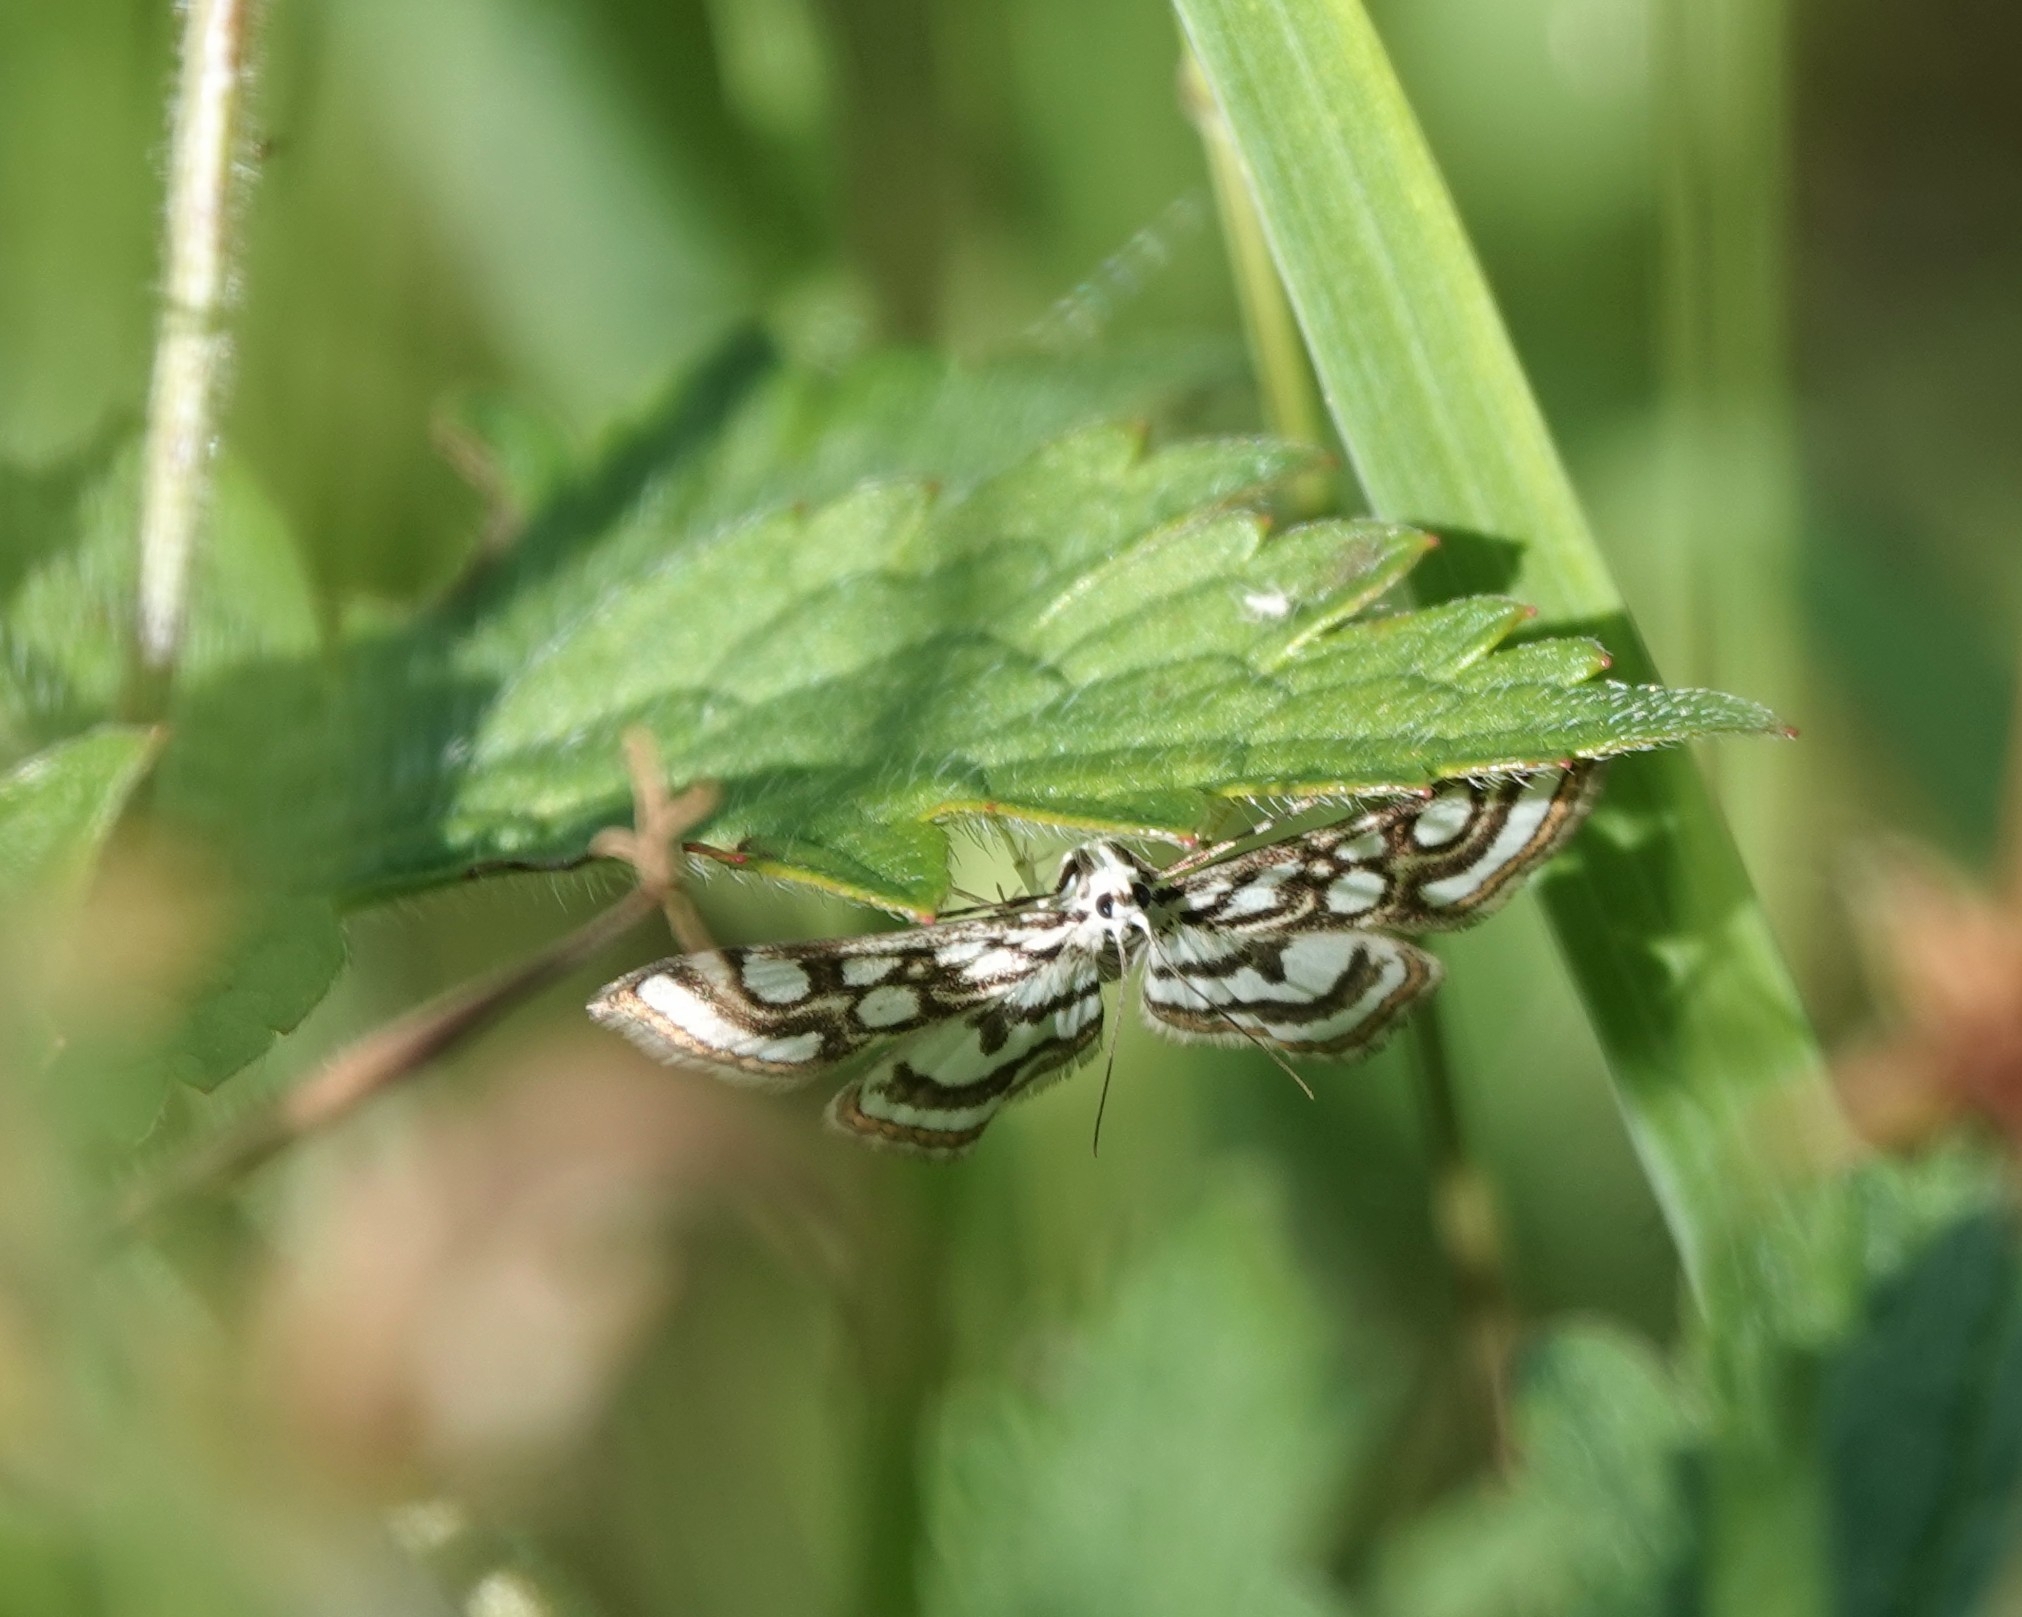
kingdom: Animalia
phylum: Arthropoda
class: Insecta
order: Lepidoptera
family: Crambidae
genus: Nymphula
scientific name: Nymphula nitidulata
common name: Beautiful china mark
